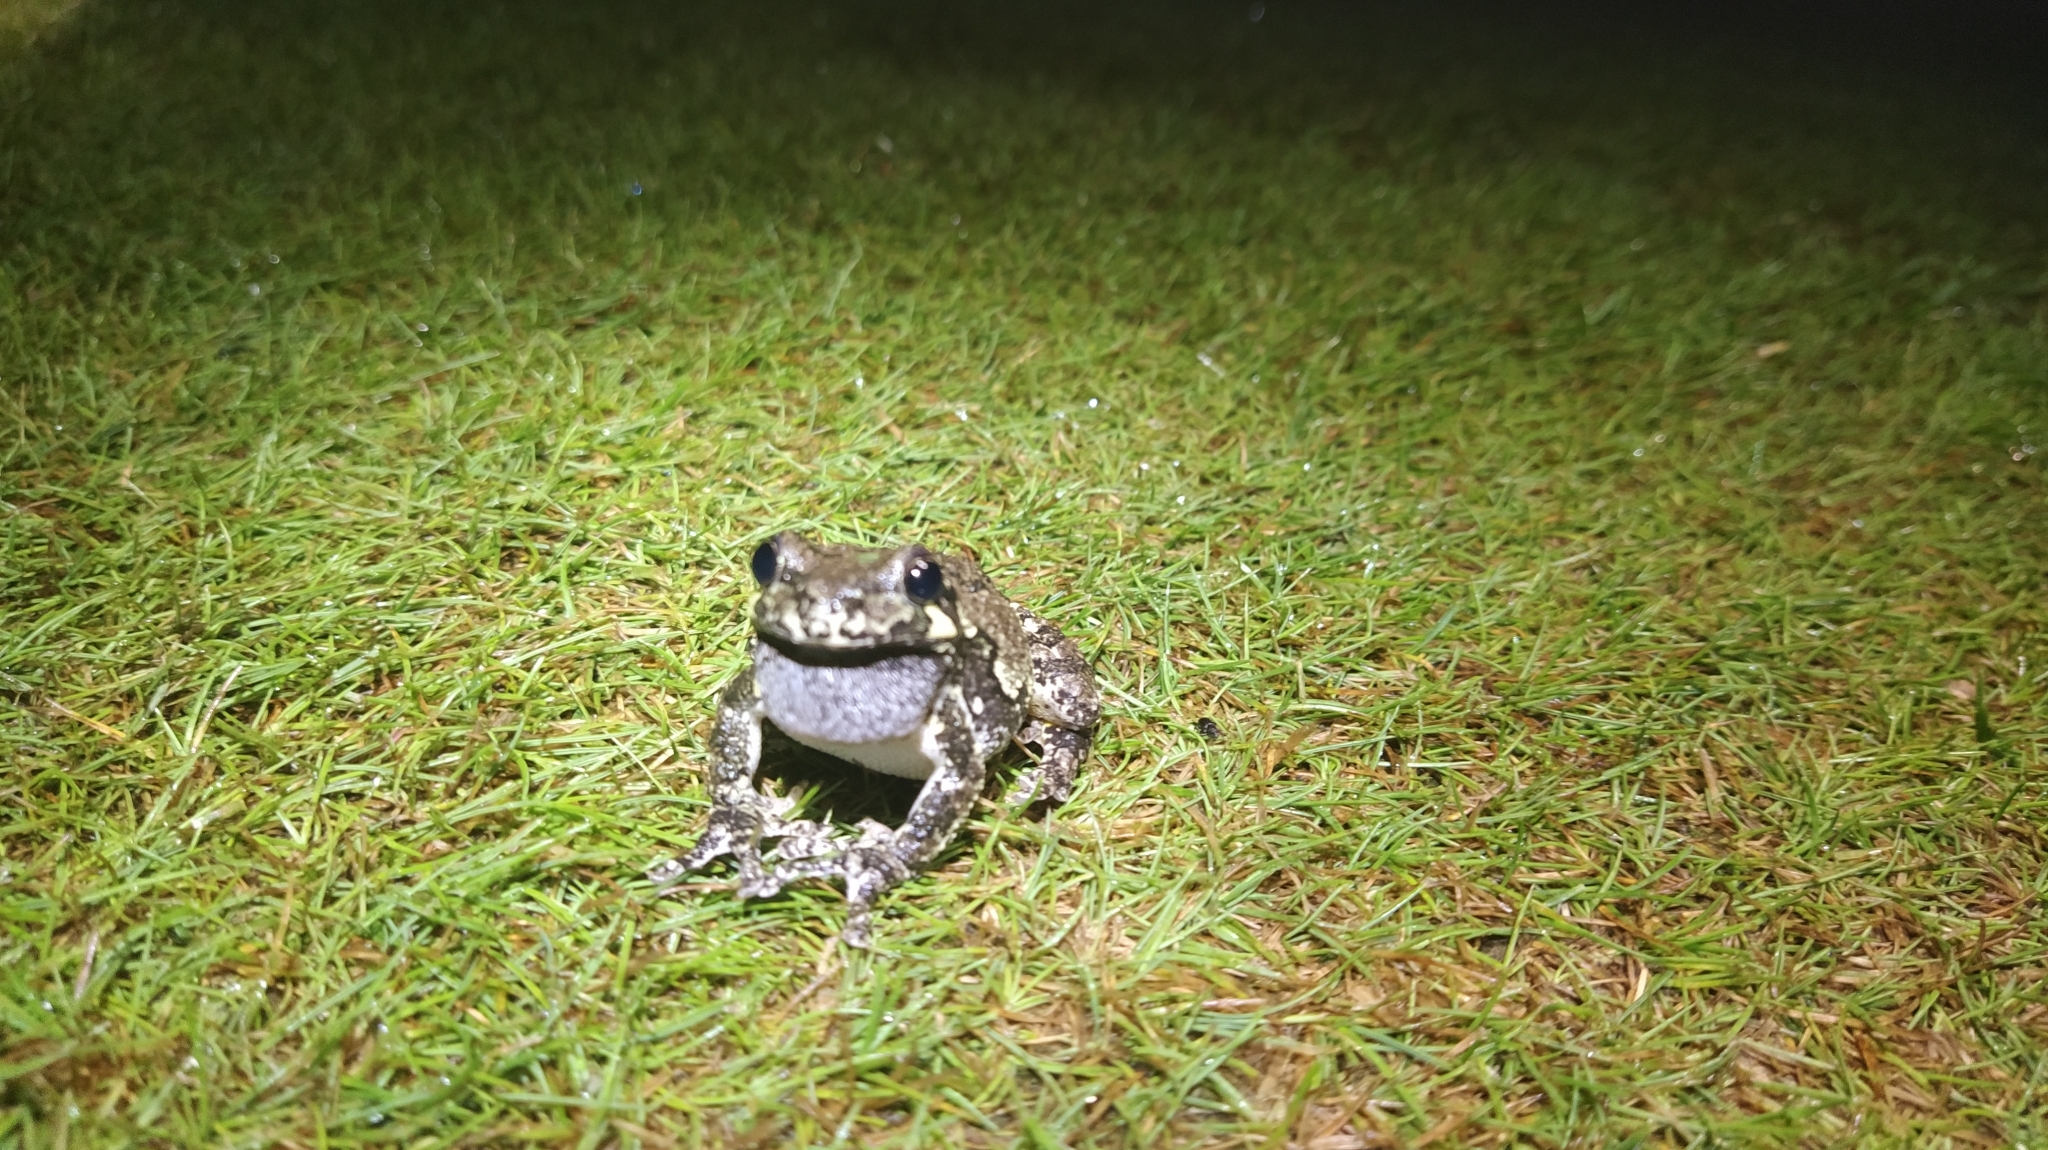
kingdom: Animalia
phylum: Chordata
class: Amphibia
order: Anura
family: Hylidae
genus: Dryophytes
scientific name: Dryophytes versicolor
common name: Gray treefrog
